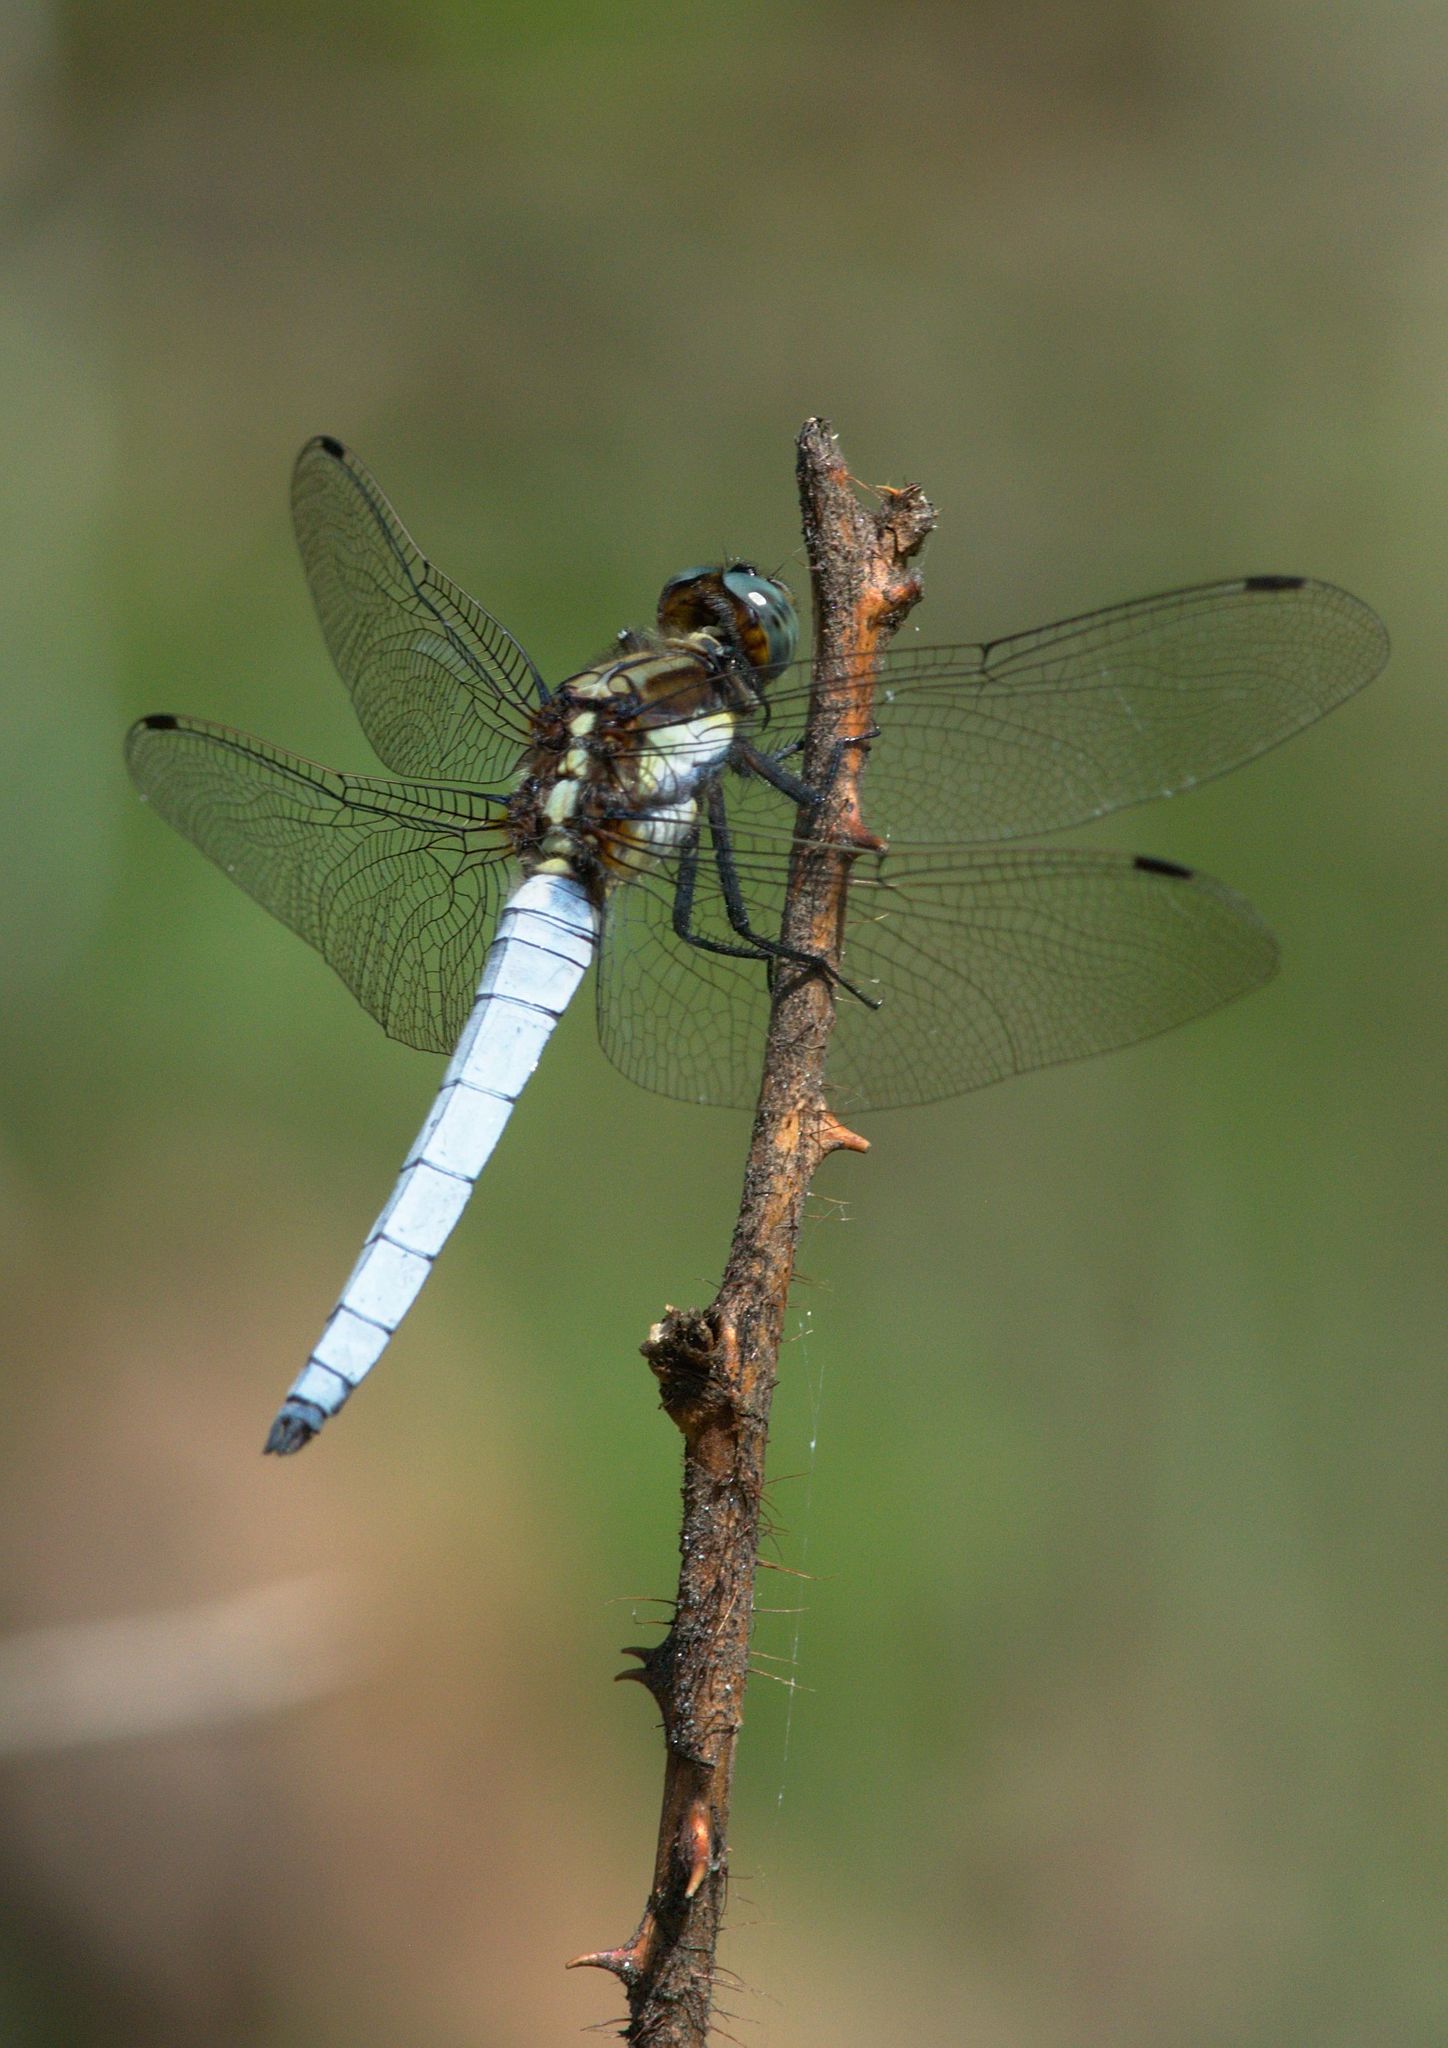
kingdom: Animalia
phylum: Arthropoda
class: Insecta
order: Odonata
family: Libellulidae
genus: Orthetrum
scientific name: Orthetrum internum
